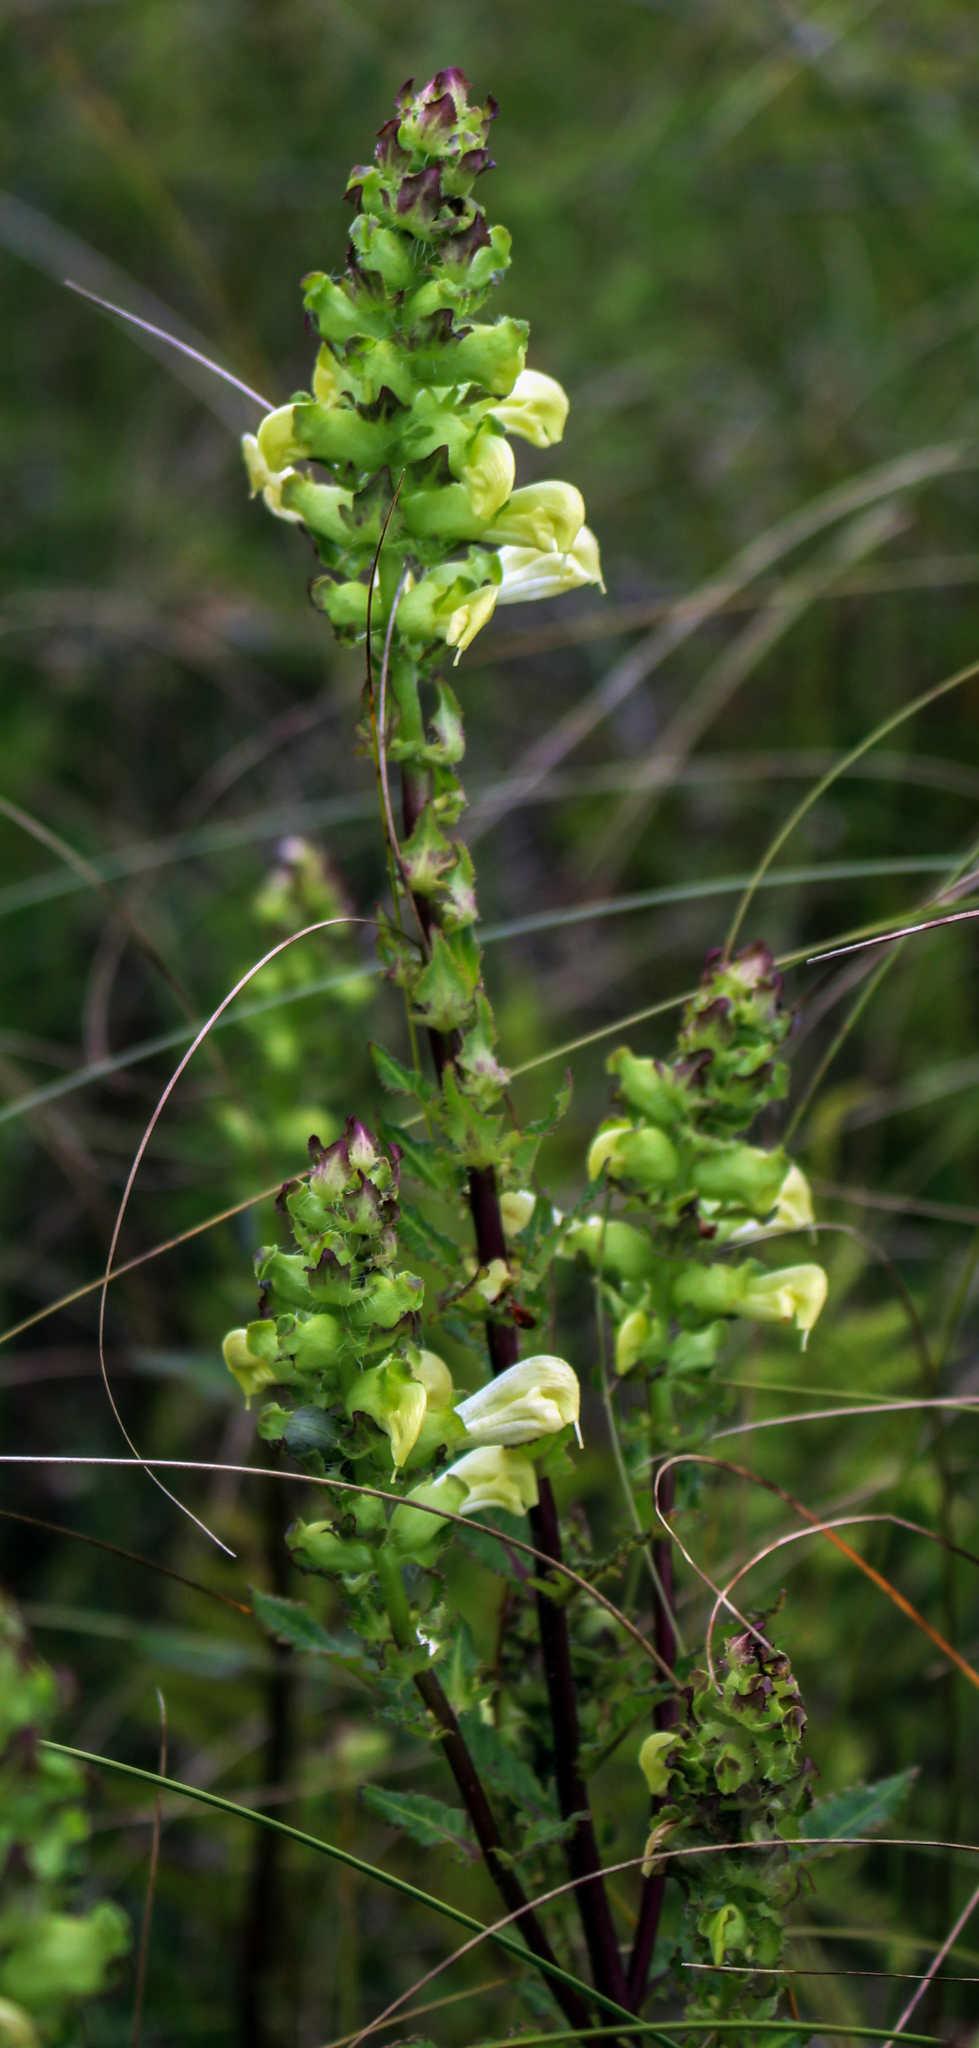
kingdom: Plantae
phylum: Tracheophyta
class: Magnoliopsida
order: Lamiales
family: Orobanchaceae
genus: Pedicularis
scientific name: Pedicularis lanceolata
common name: Swamp lousewort
